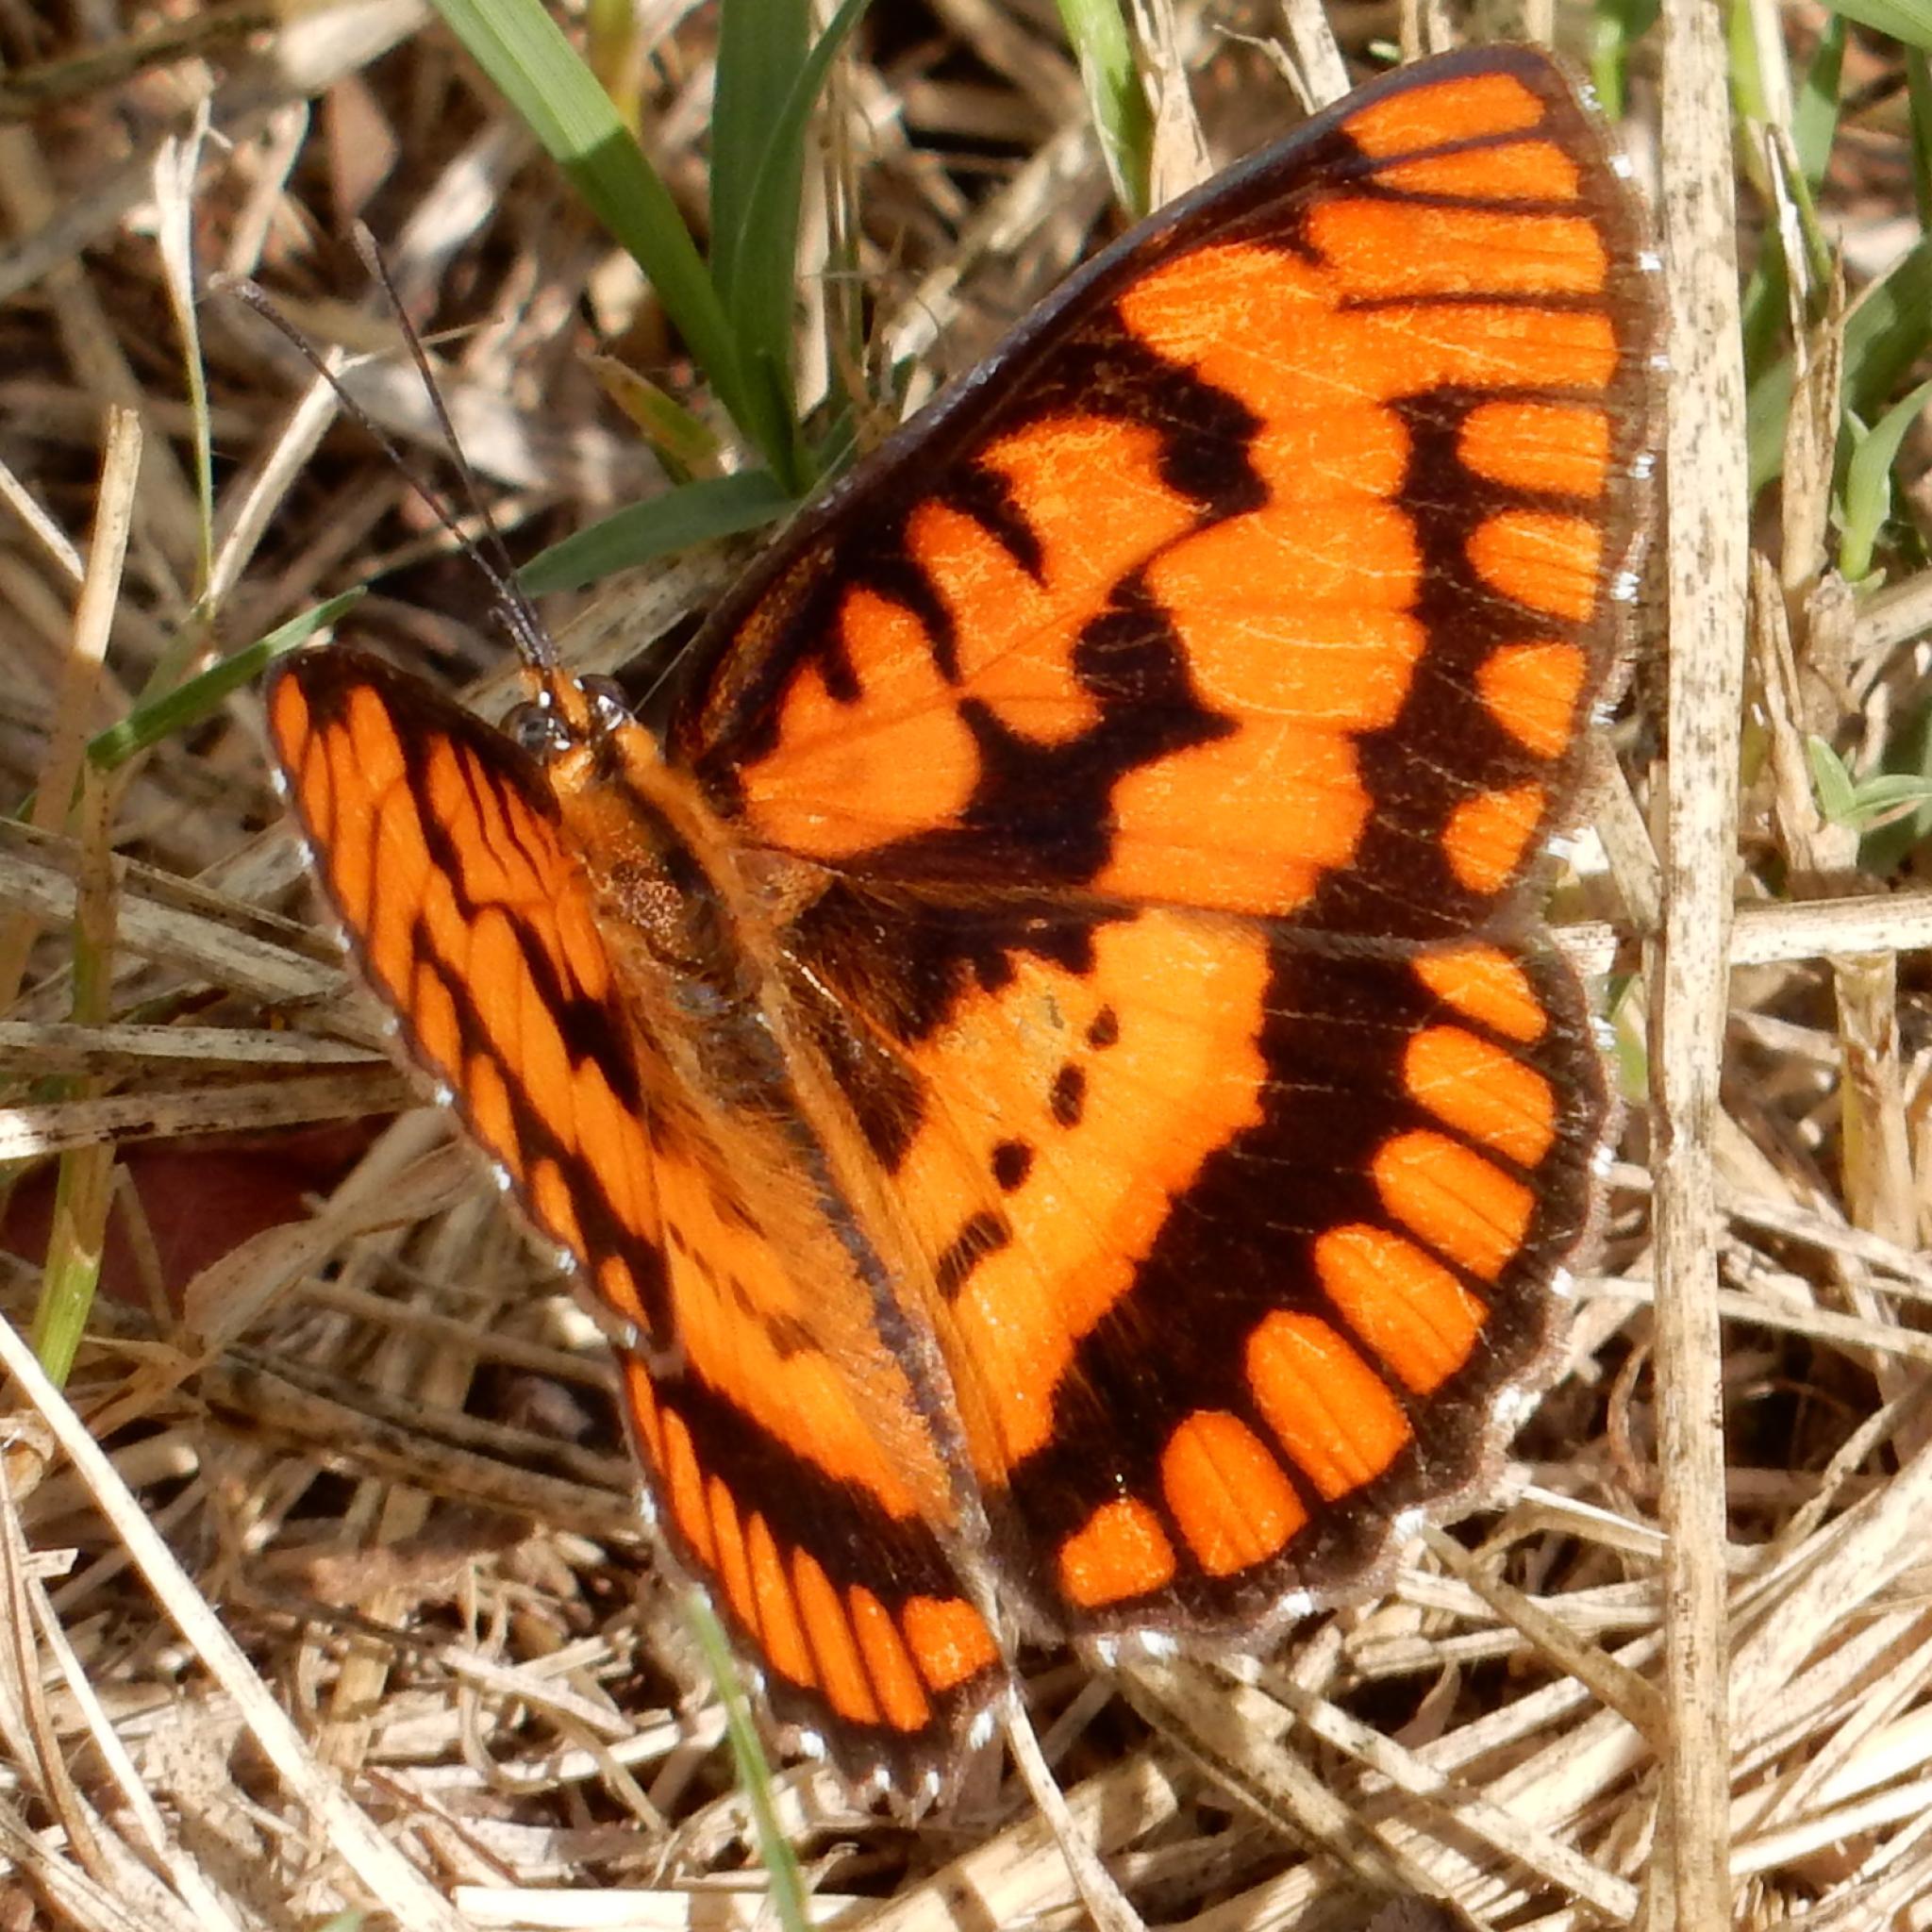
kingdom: Animalia
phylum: Arthropoda
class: Insecta
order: Lepidoptera
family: Nymphalidae
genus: Byblia
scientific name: Byblia ilithyia
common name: Spotted joker
